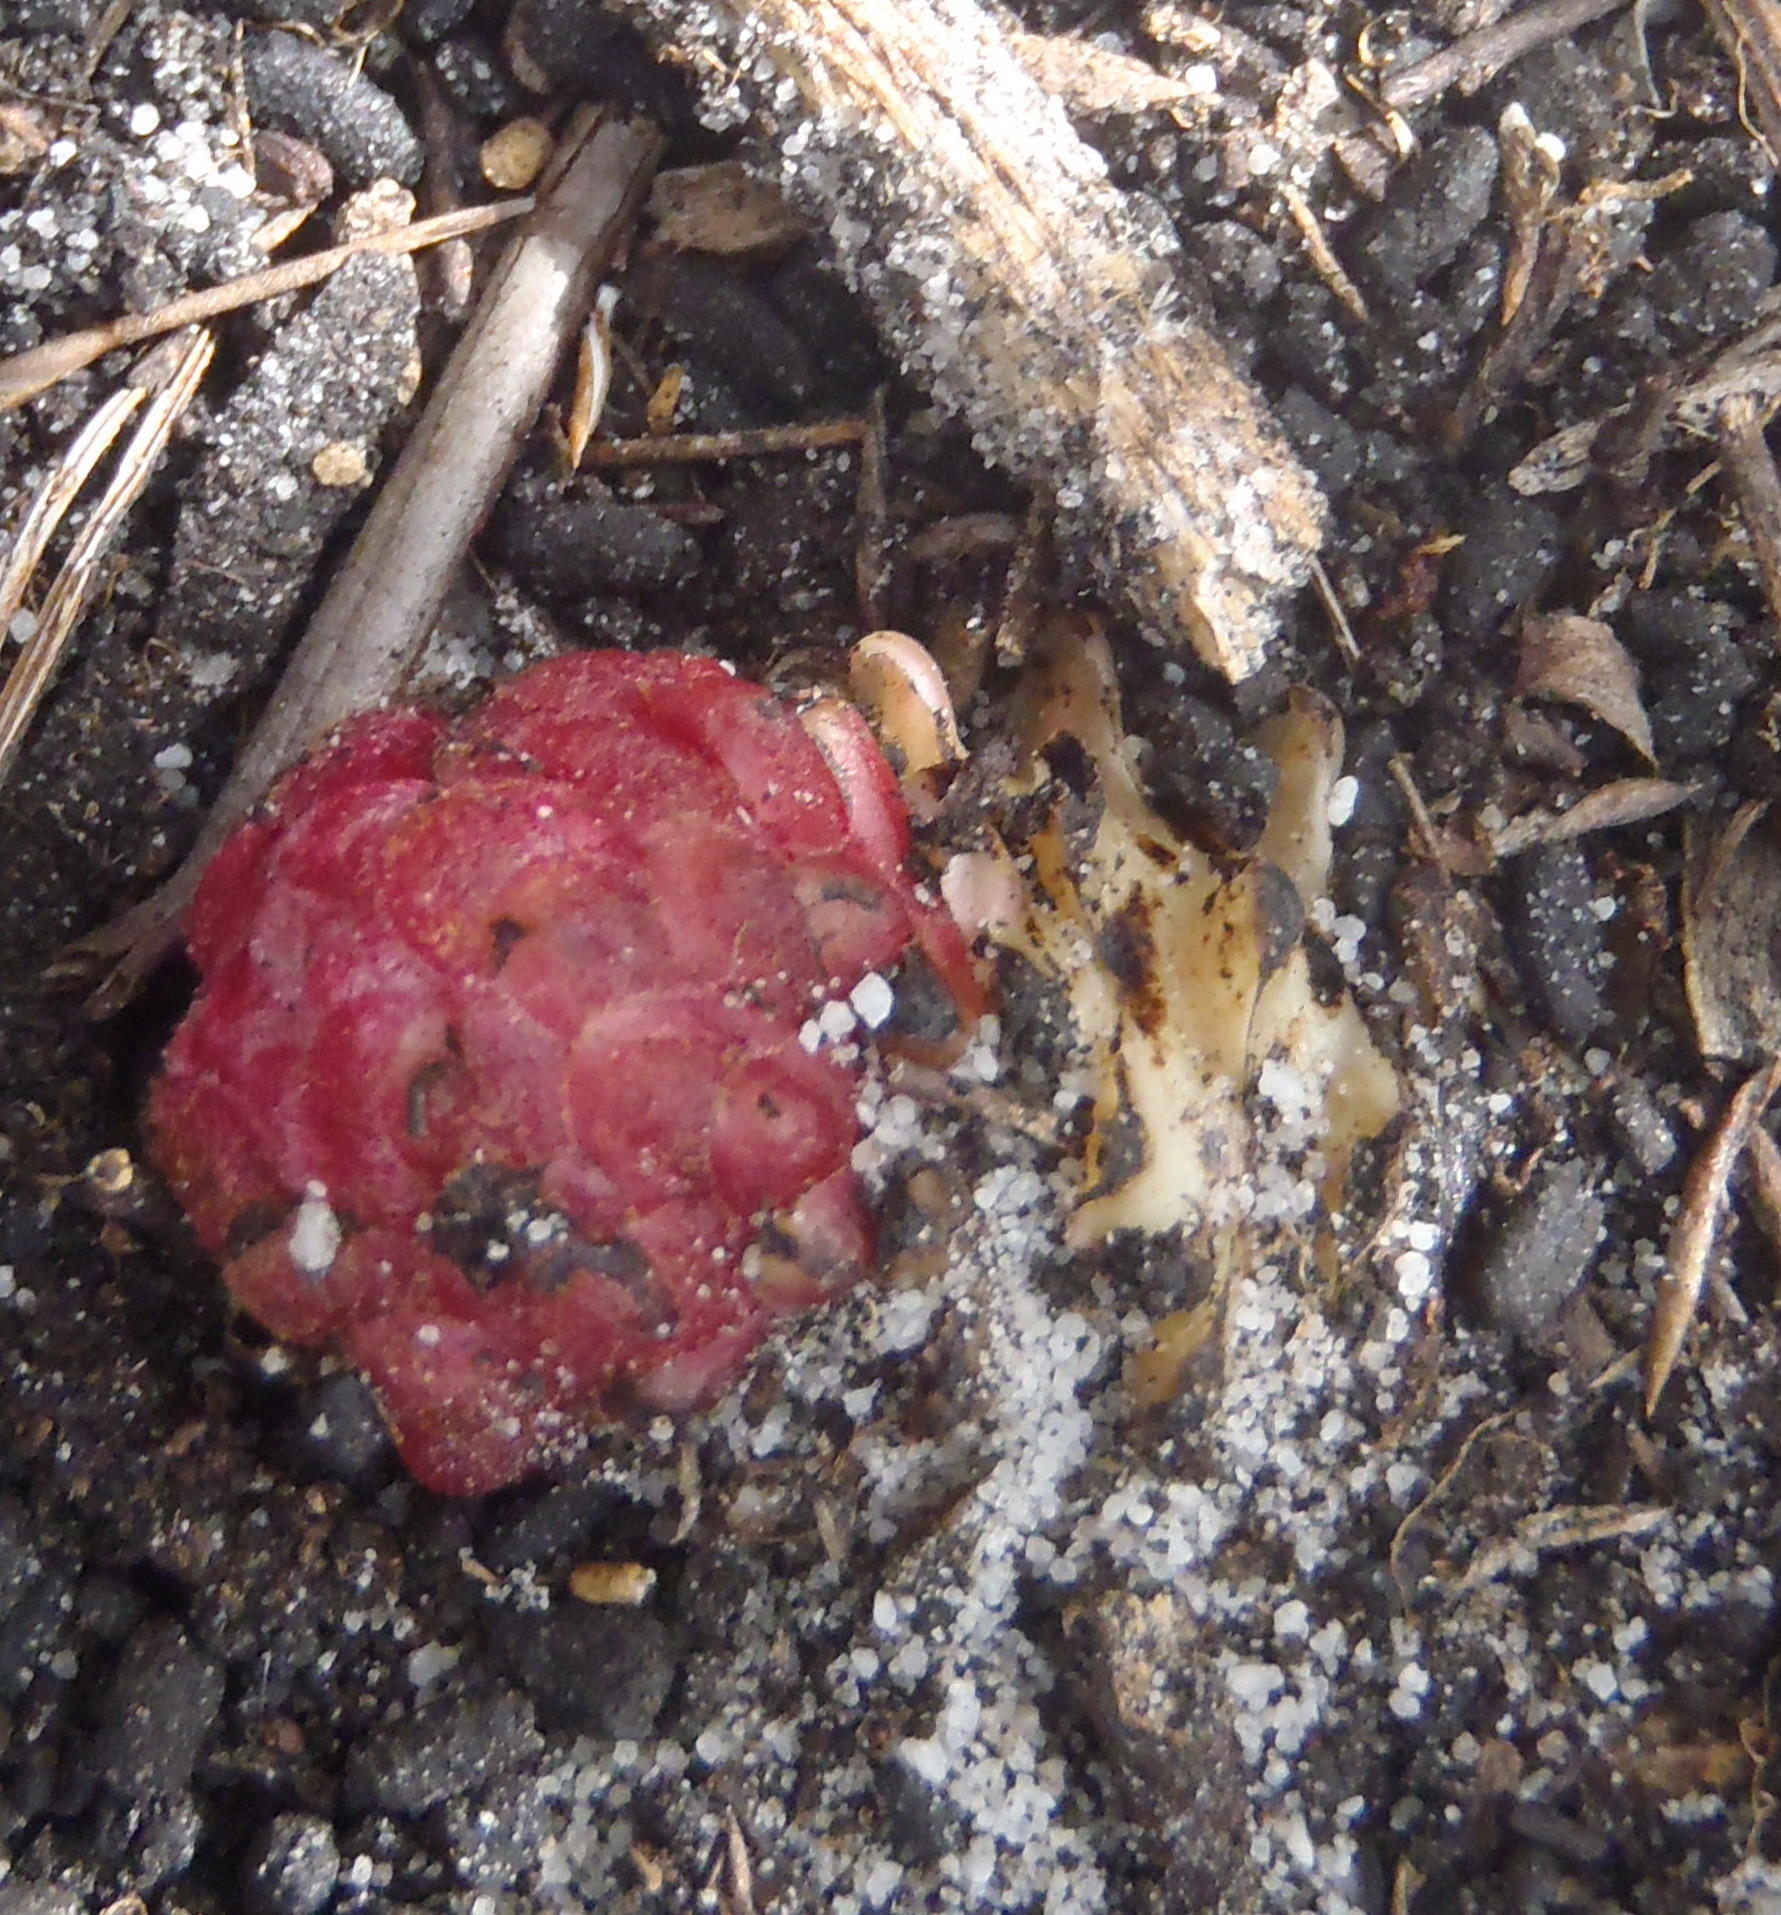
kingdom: Plantae
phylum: Tracheophyta
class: Magnoliopsida
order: Lamiales
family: Orobanchaceae
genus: Hyobanche
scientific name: Hyobanche sanguinea
